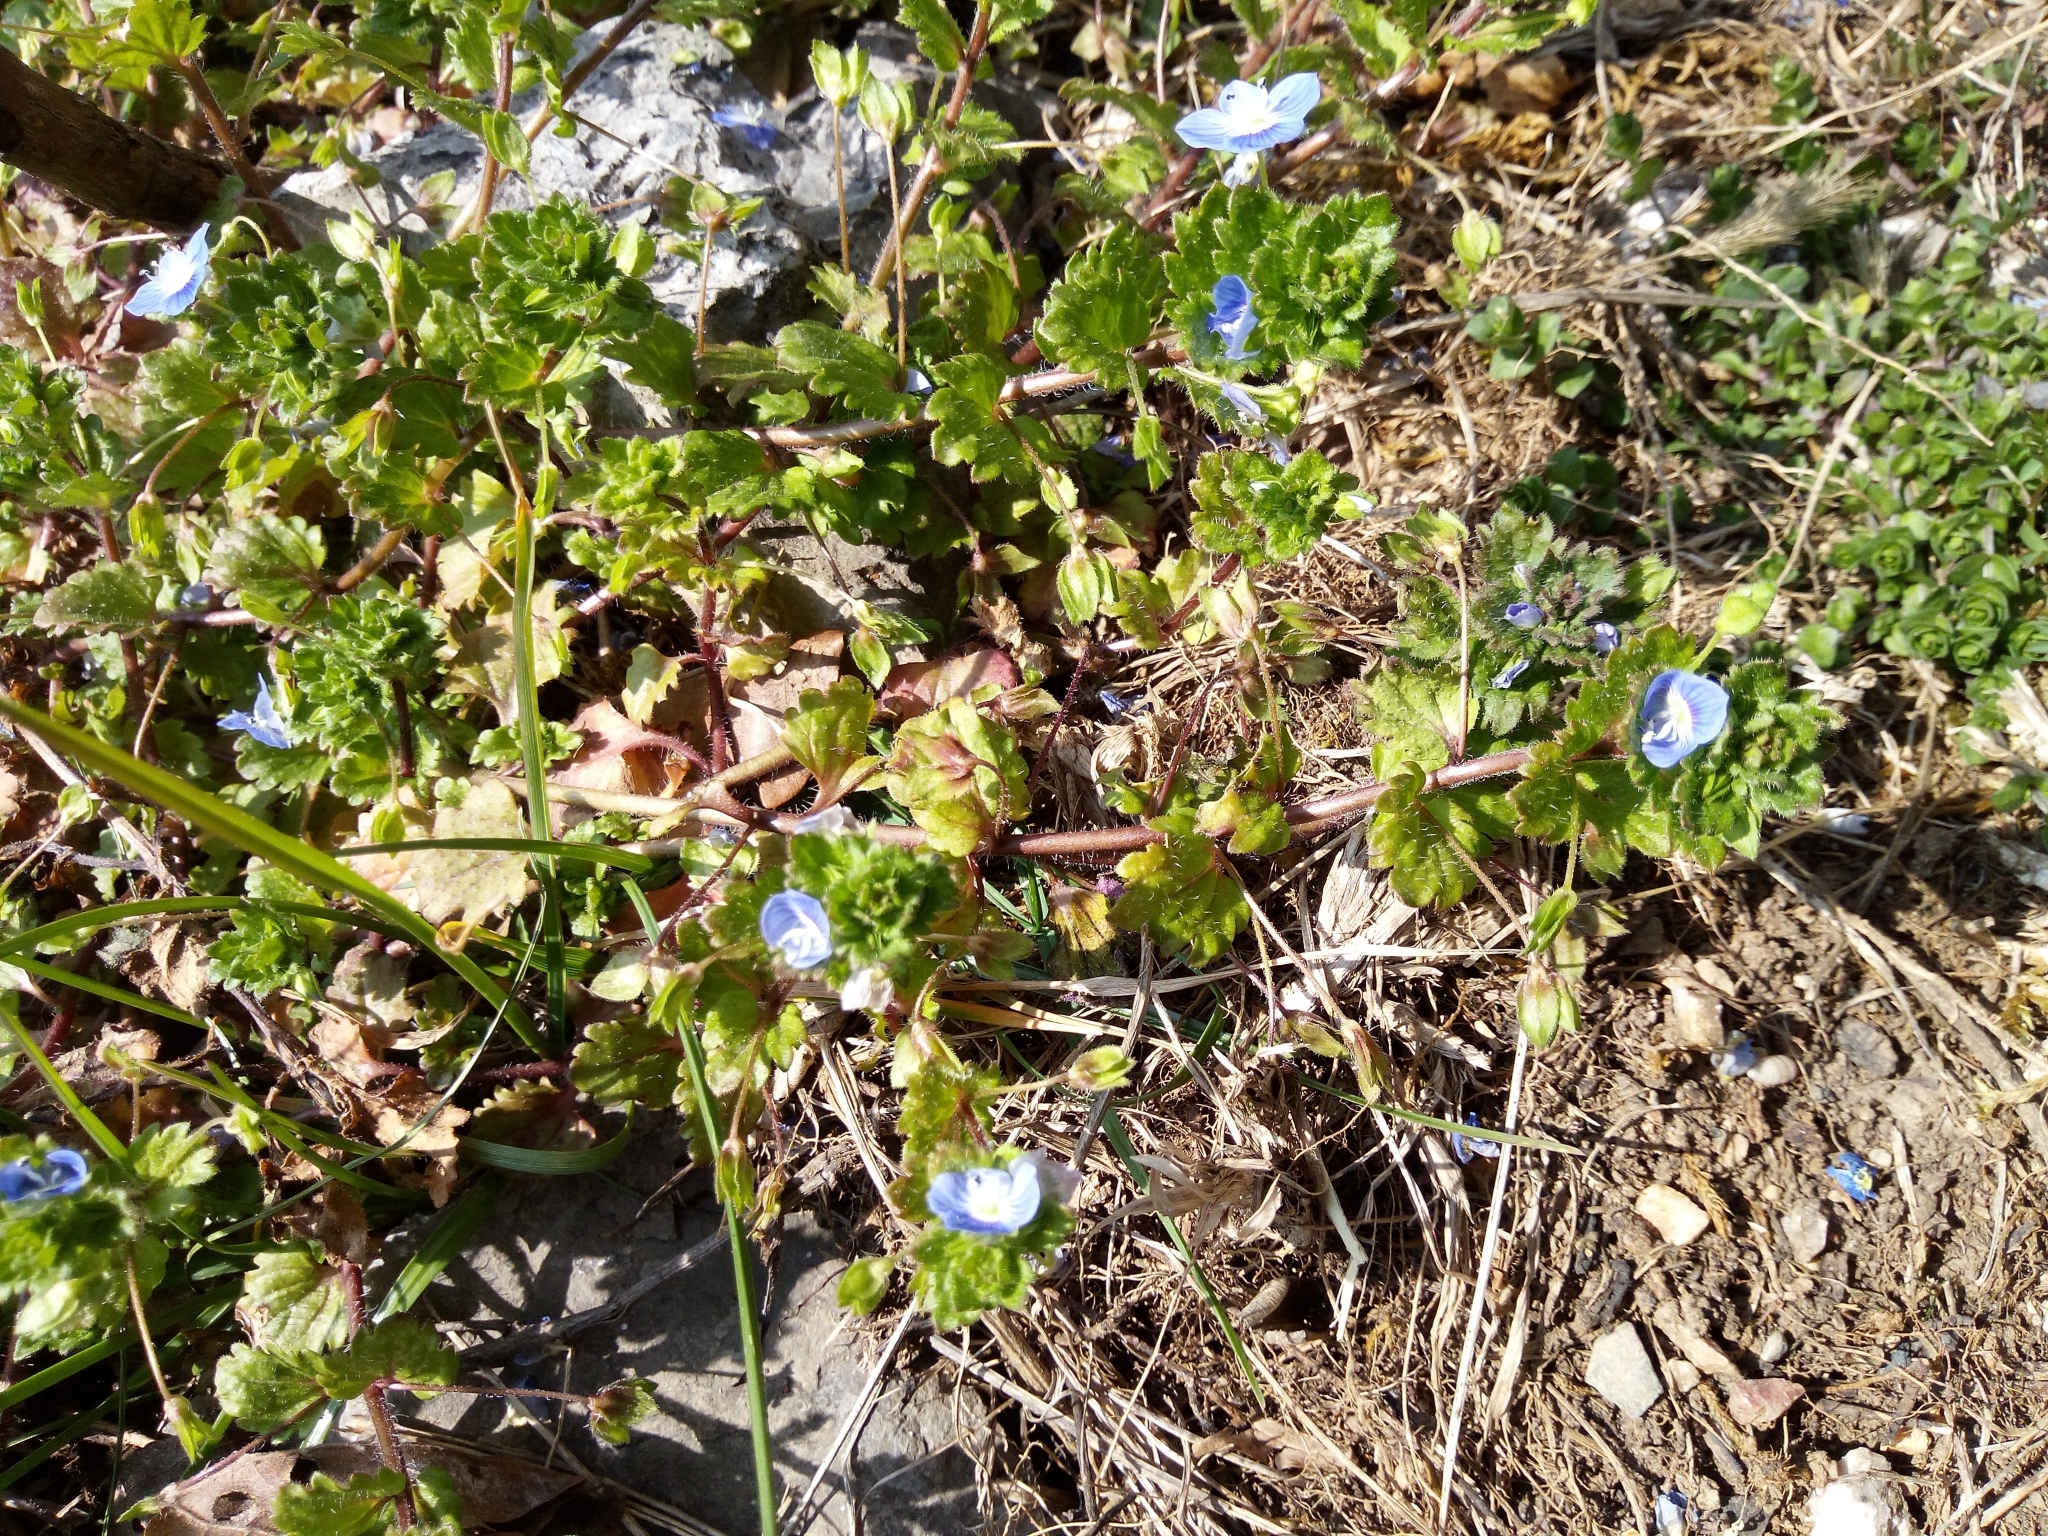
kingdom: Plantae
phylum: Tracheophyta
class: Magnoliopsida
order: Lamiales
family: Plantaginaceae
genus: Veronica
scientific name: Veronica persica
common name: Common field-speedwell
